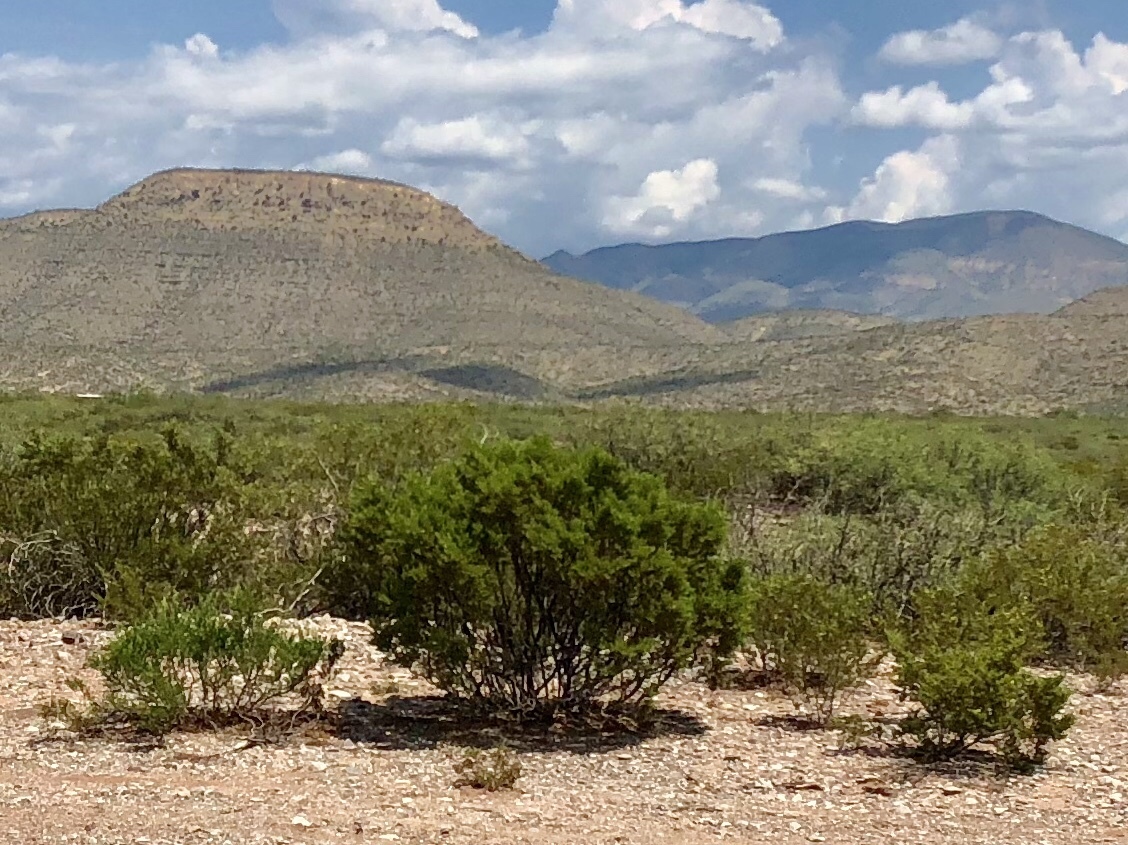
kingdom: Plantae
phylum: Tracheophyta
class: Magnoliopsida
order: Zygophyllales
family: Zygophyllaceae
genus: Larrea
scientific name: Larrea tridentata
